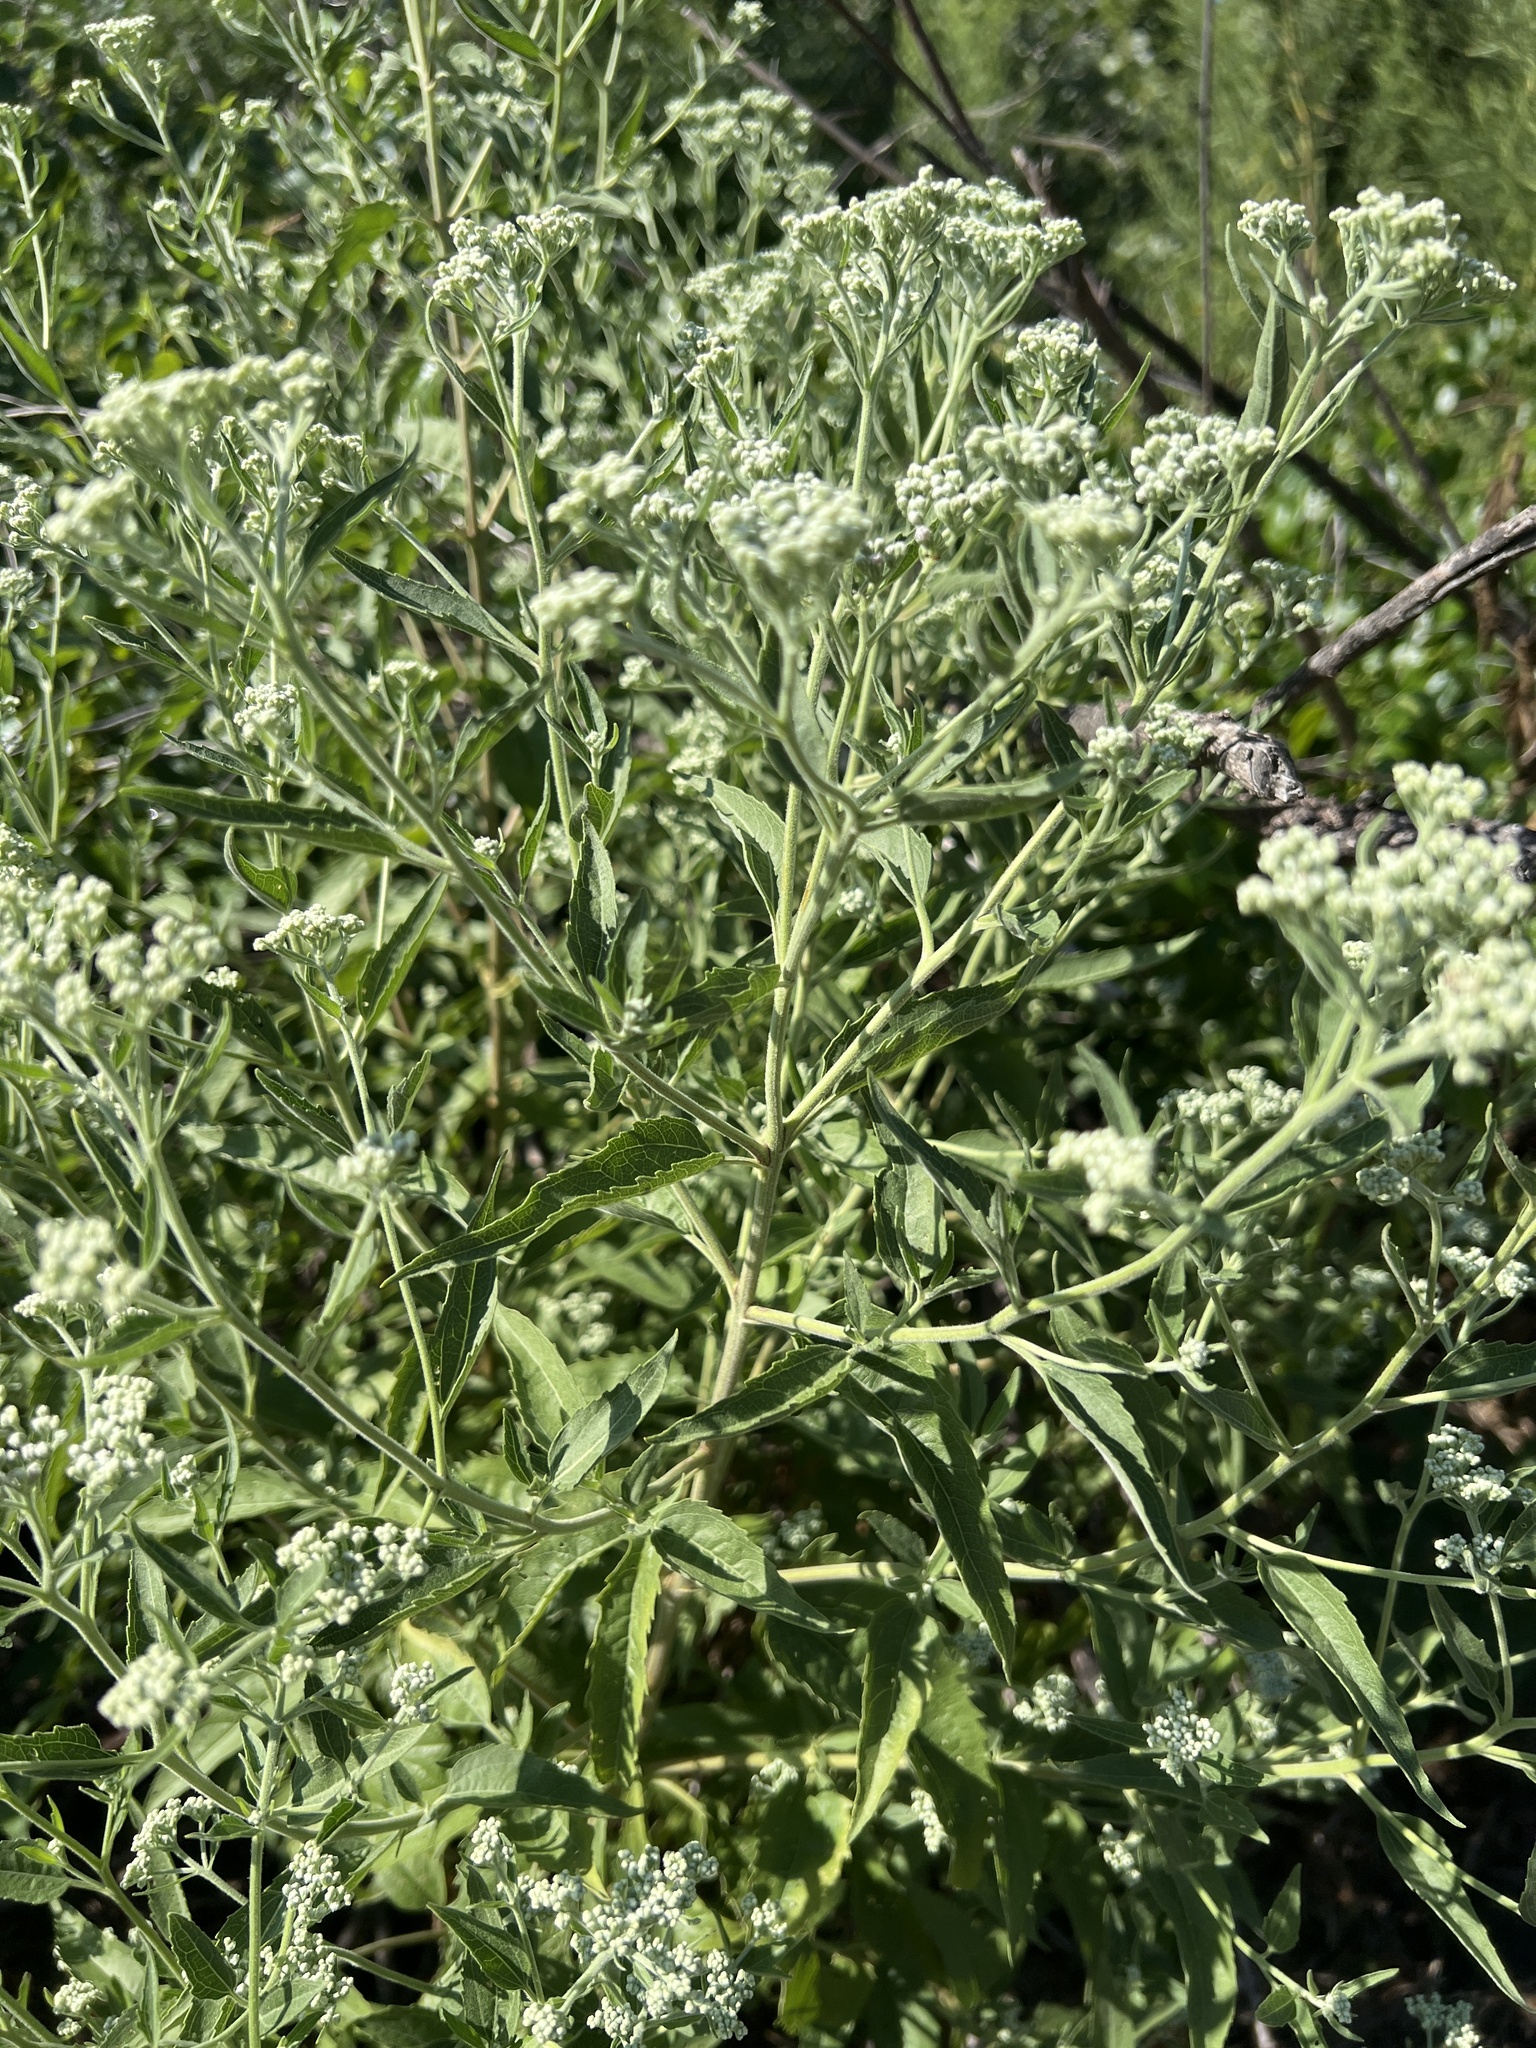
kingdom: Plantae
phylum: Tracheophyta
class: Magnoliopsida
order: Asterales
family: Asteraceae
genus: Eupatorium
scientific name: Eupatorium serotinum
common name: Late boneset
